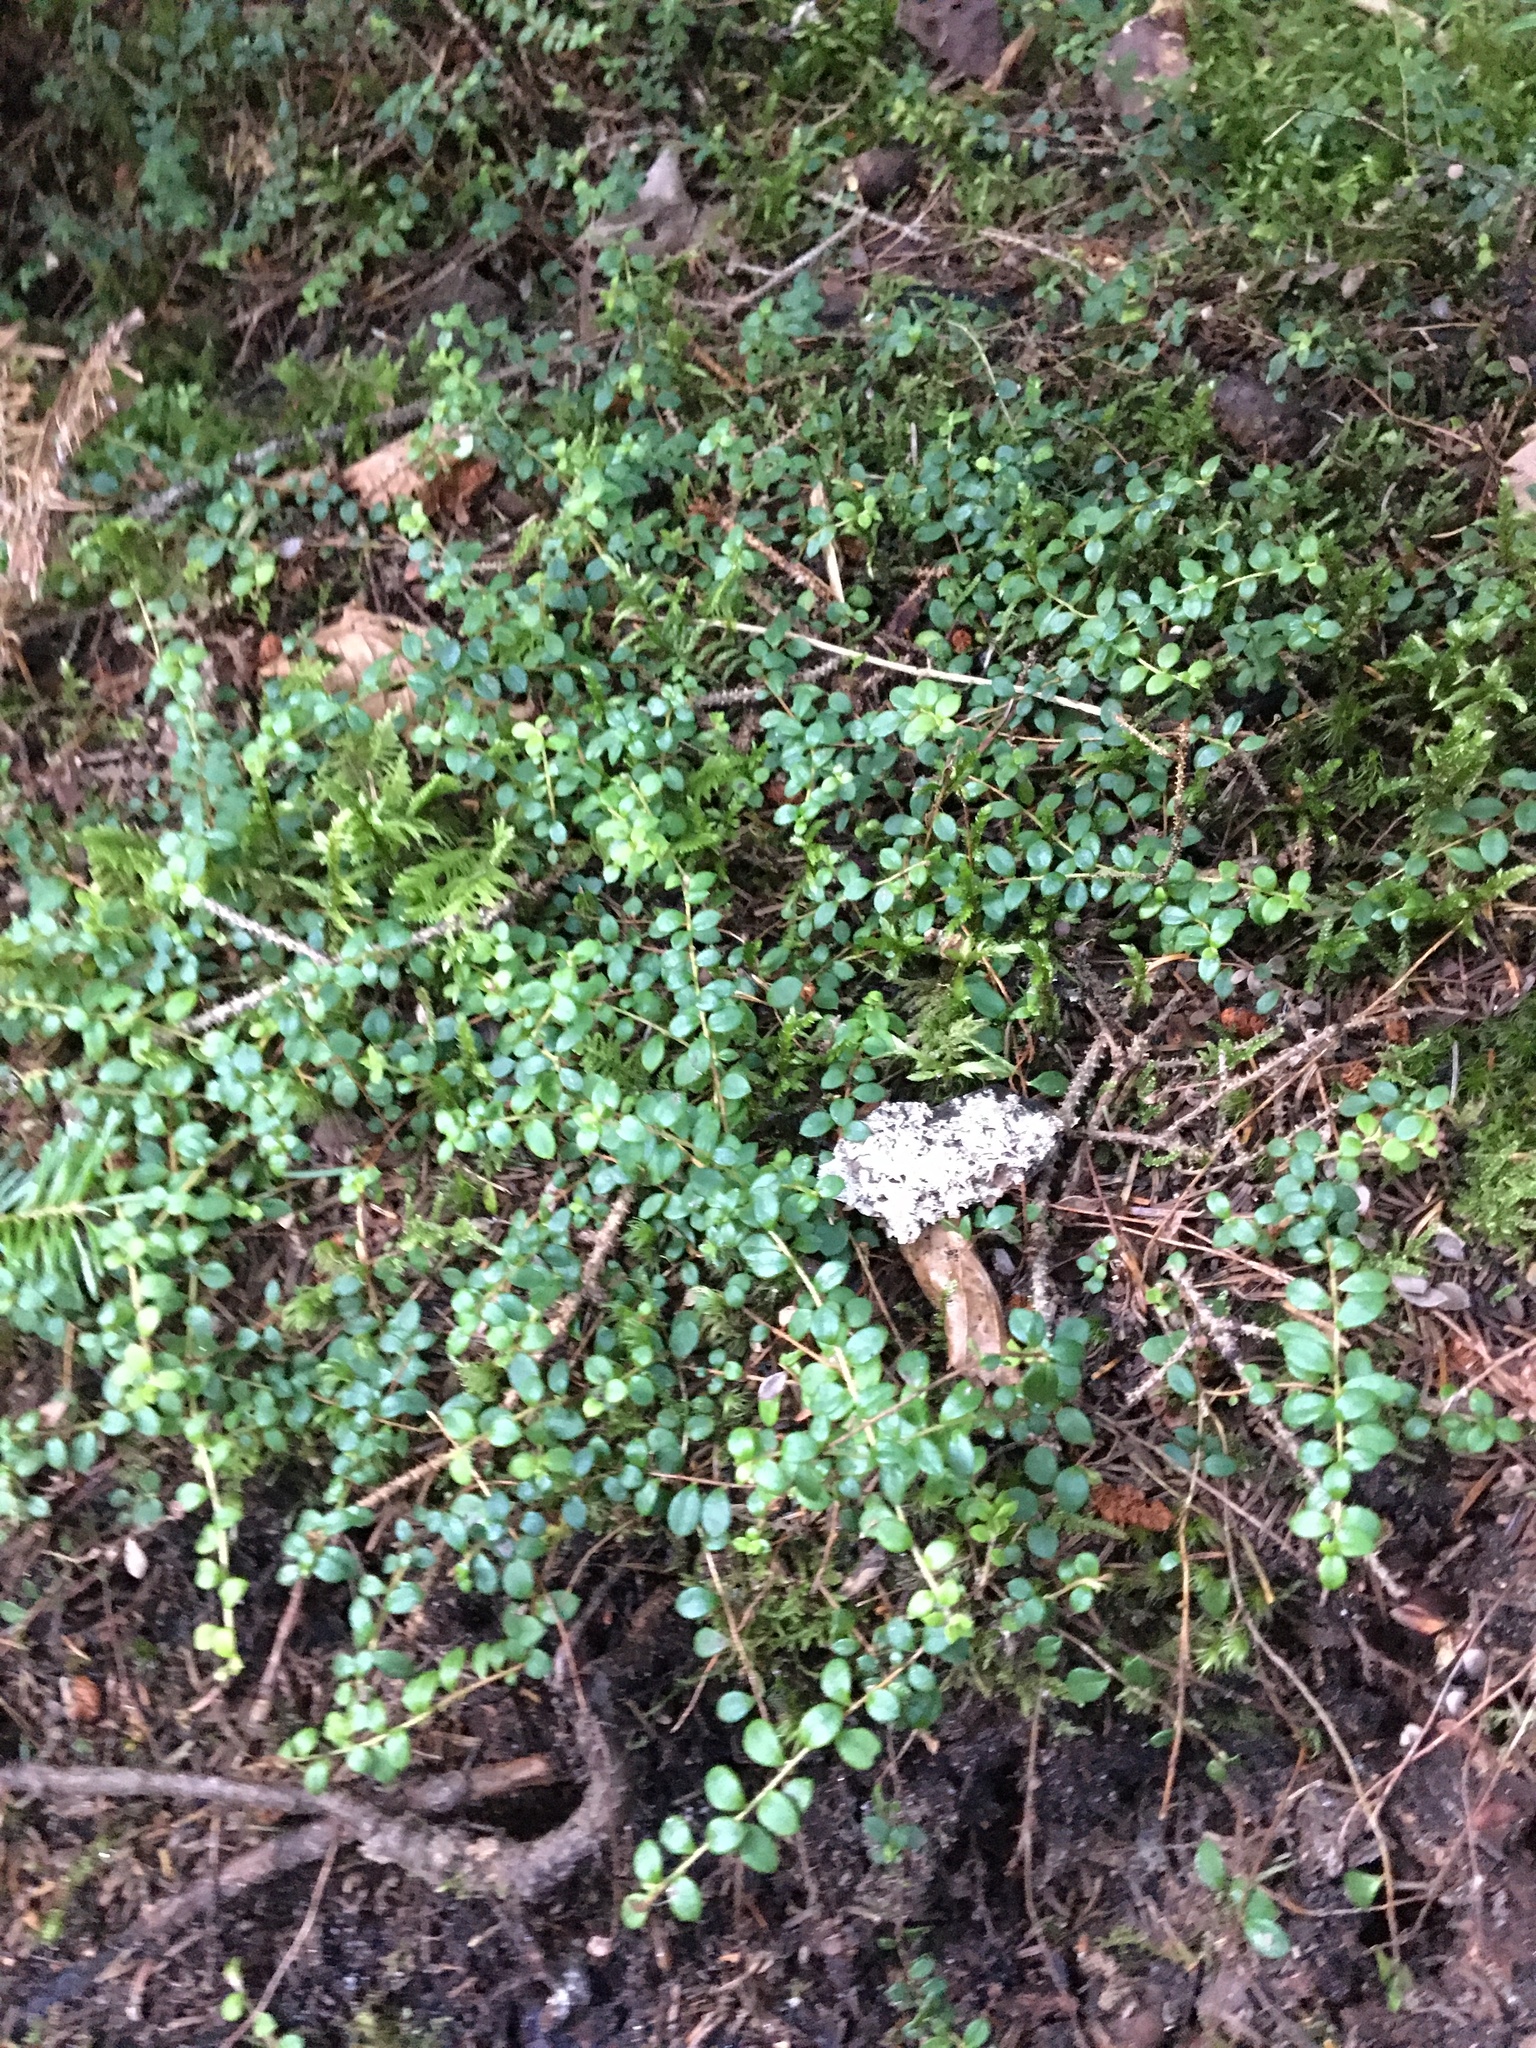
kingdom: Plantae
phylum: Tracheophyta
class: Magnoliopsida
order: Ericales
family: Ericaceae
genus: Gaultheria
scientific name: Gaultheria hispidula
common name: Cancer wintergreen
